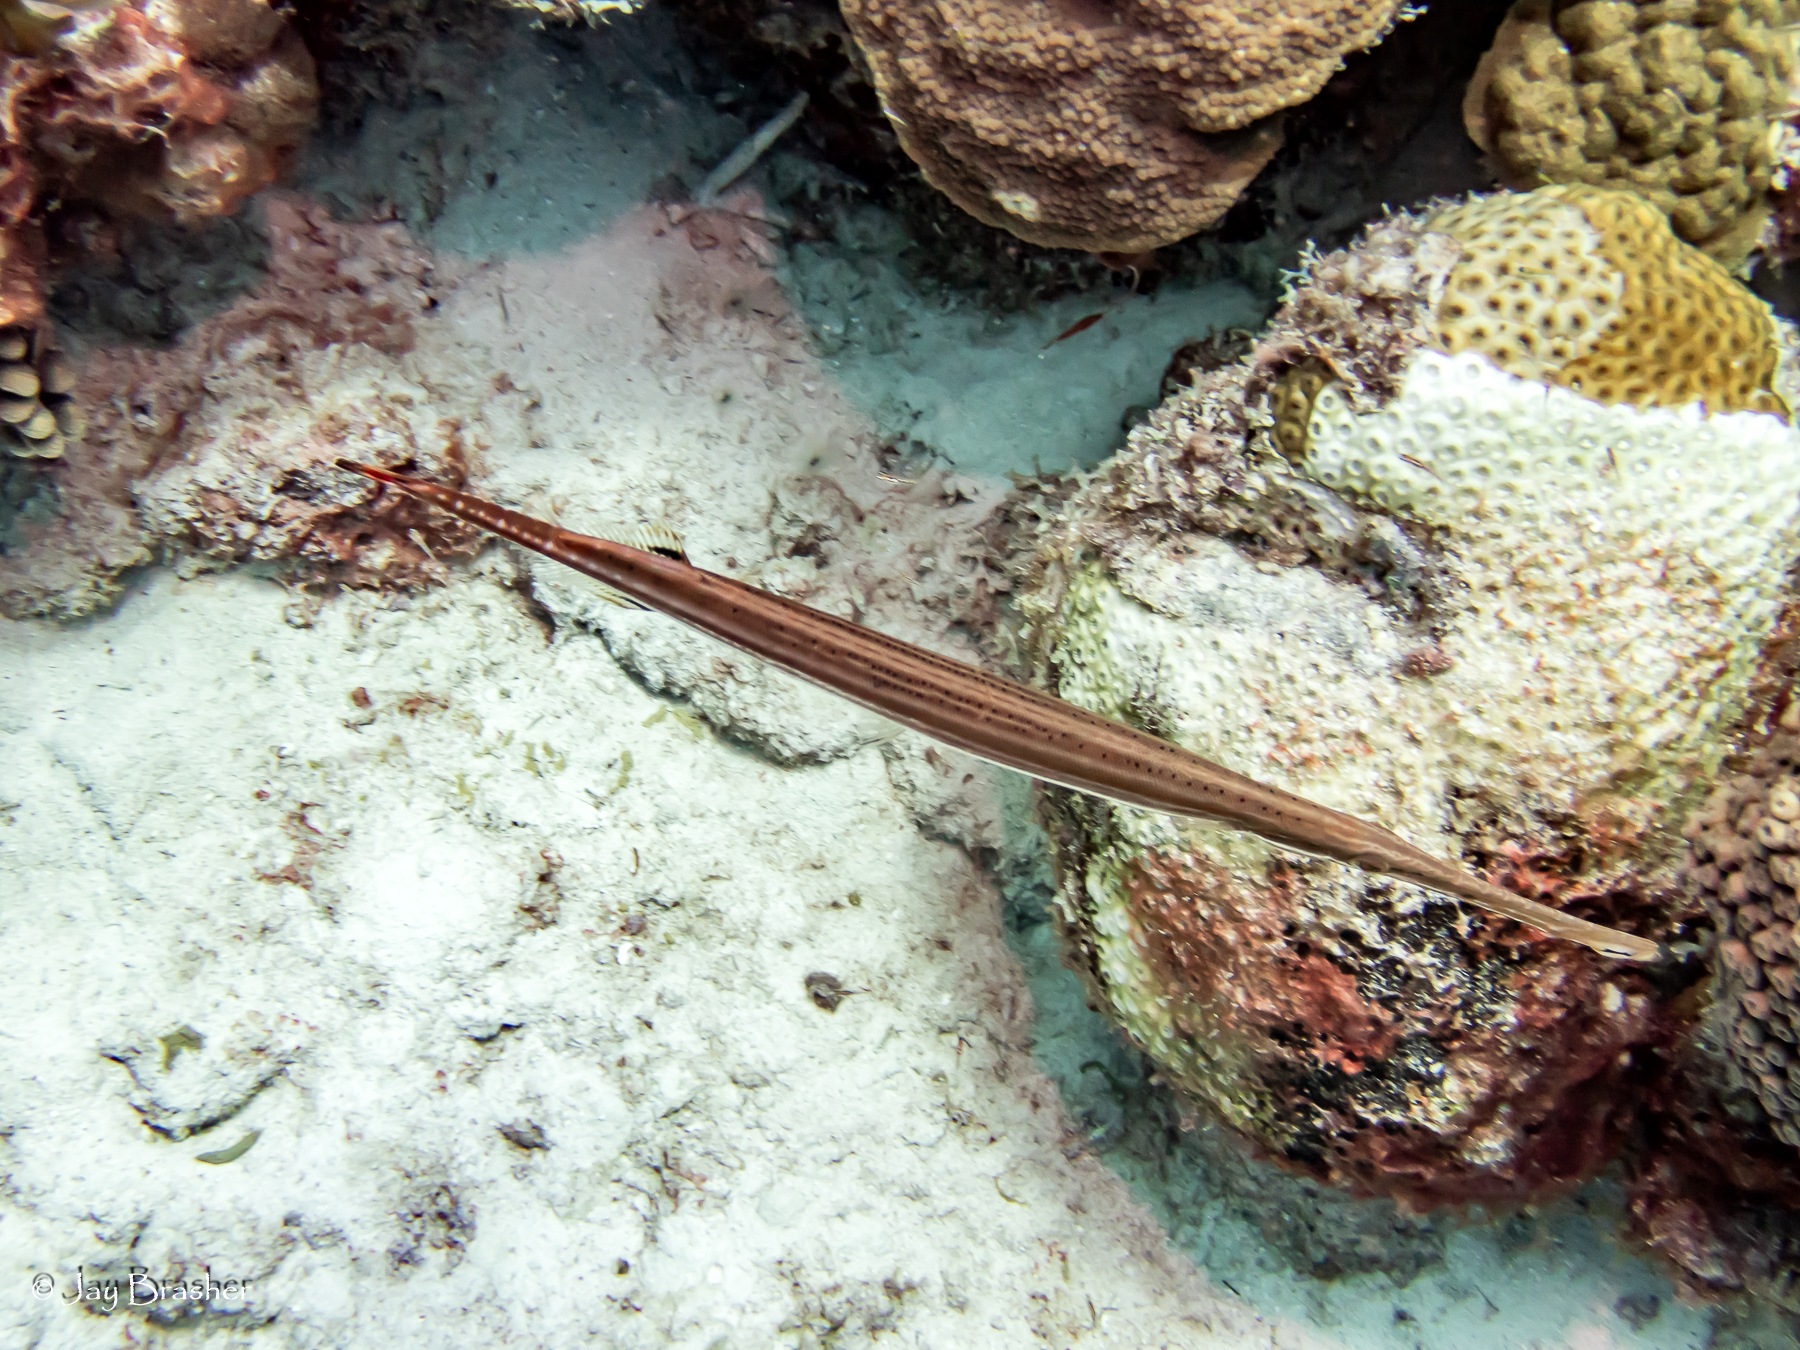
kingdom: Animalia
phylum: Chordata
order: Syngnathiformes
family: Aulostomidae
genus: Aulostomus
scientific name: Aulostomus maculatus
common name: West atlantic trumpetfish
